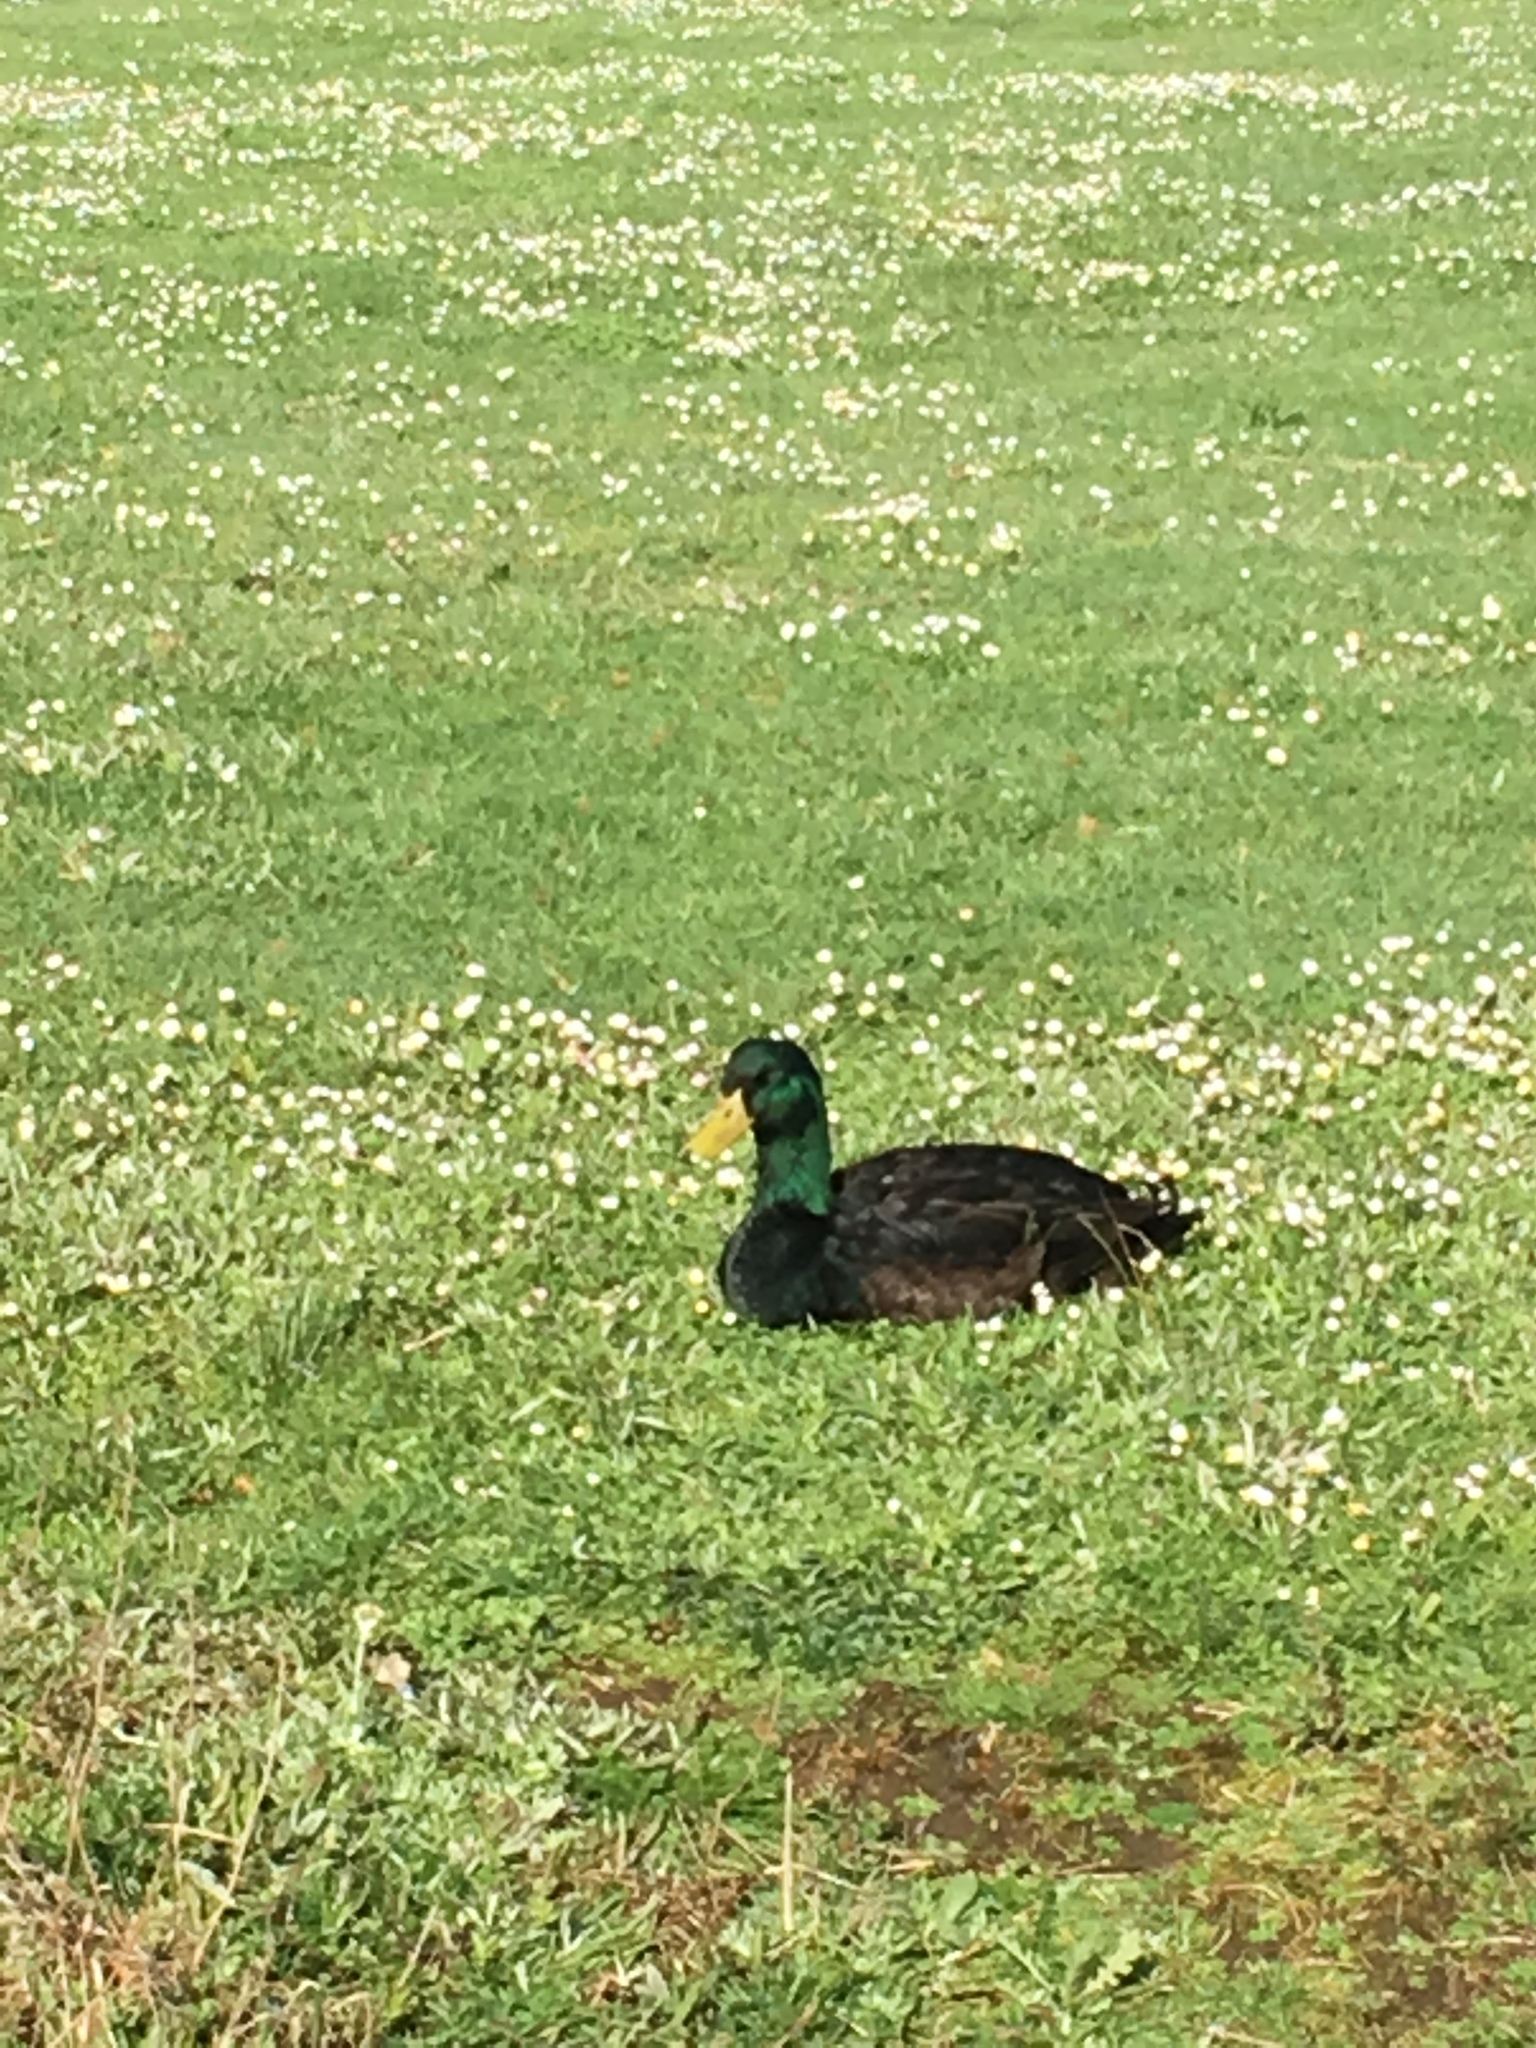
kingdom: Animalia
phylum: Chordata
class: Aves
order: Anseriformes
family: Anatidae
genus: Anas
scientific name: Anas platyrhynchos
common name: Mallard
